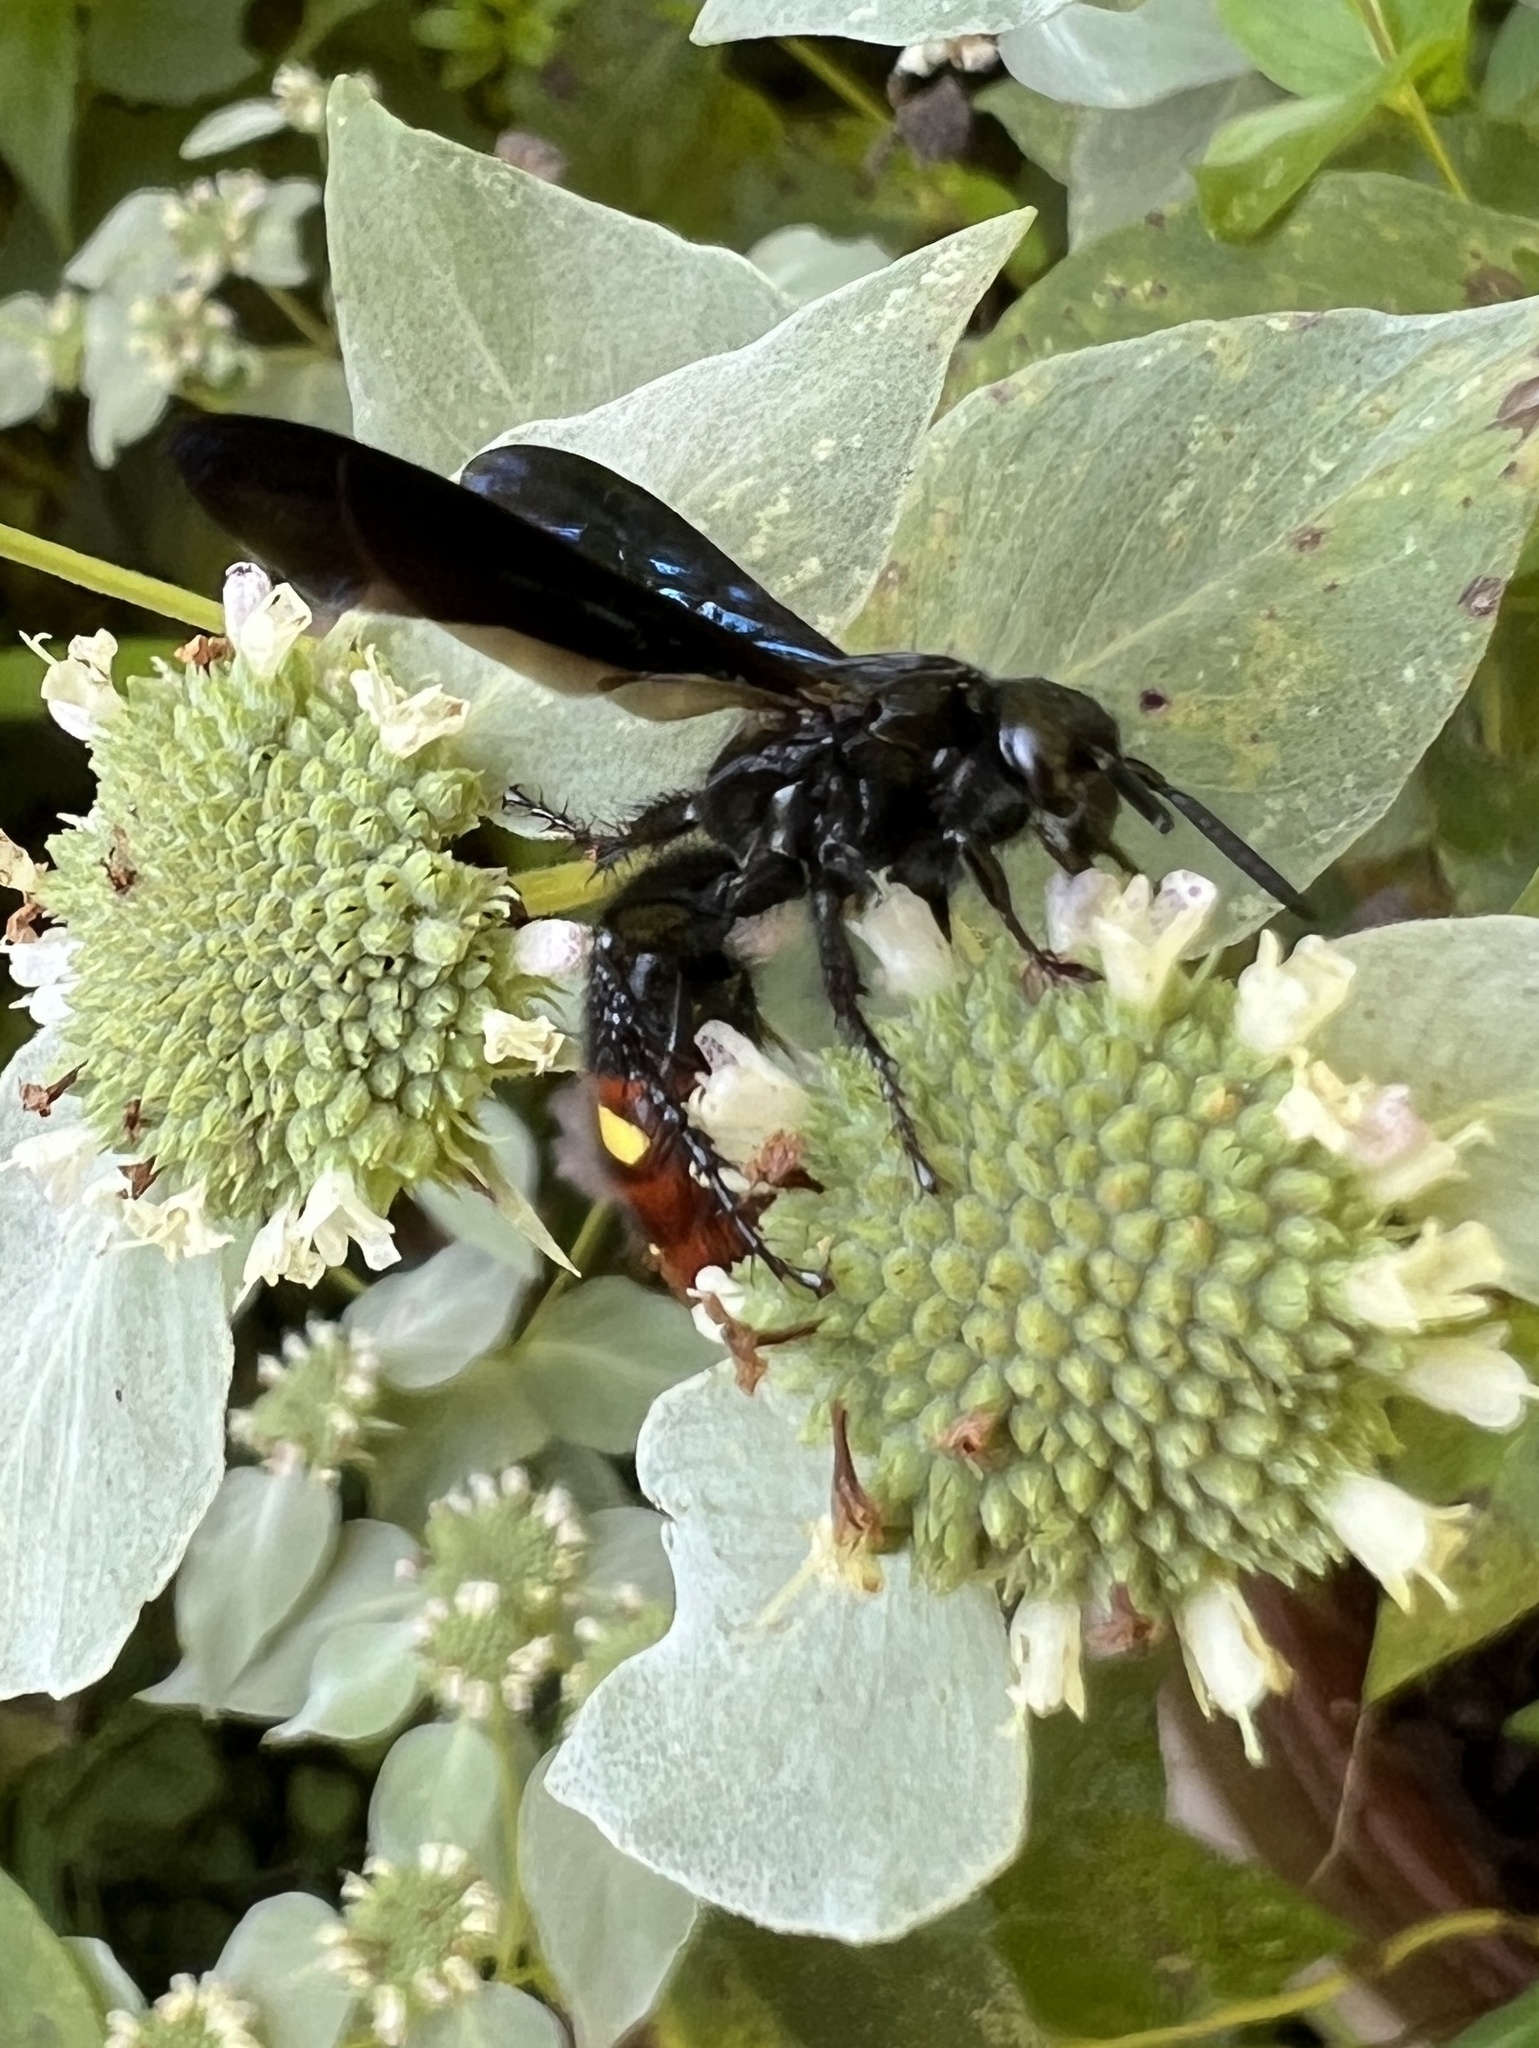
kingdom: Animalia
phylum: Arthropoda
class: Insecta
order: Hymenoptera
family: Scoliidae
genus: Scolia
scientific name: Scolia dubia
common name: Blue-winged scoliid wasp
